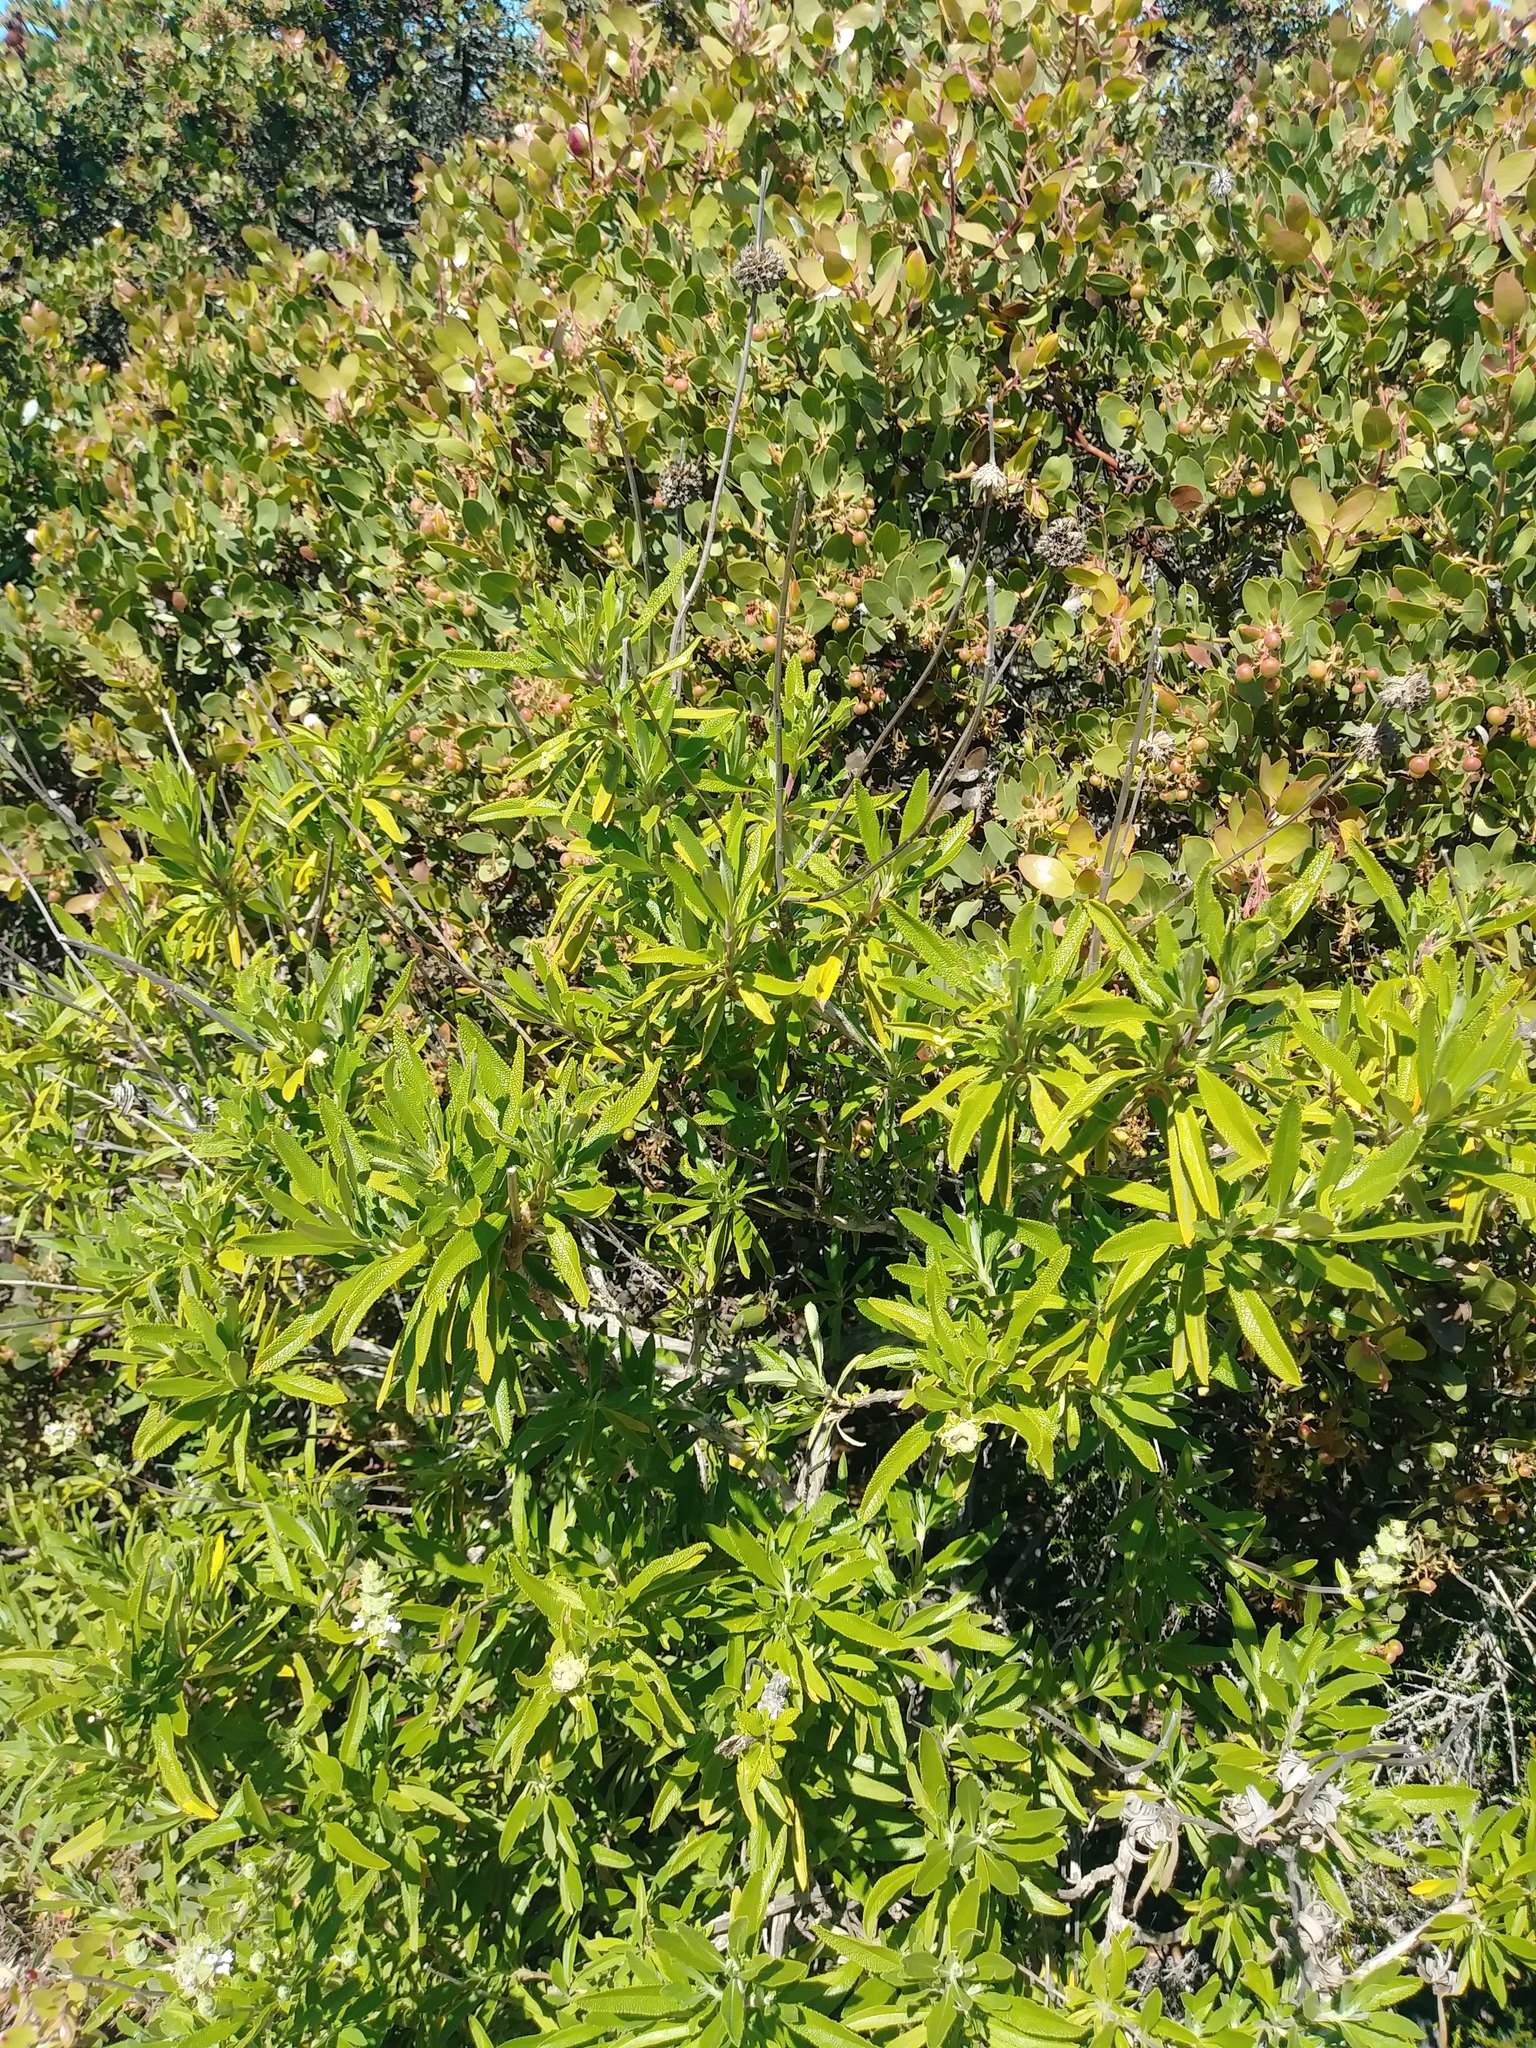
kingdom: Plantae
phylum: Tracheophyta
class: Magnoliopsida
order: Lamiales
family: Lamiaceae
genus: Salvia
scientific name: Salvia mellifera
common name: Black sage
